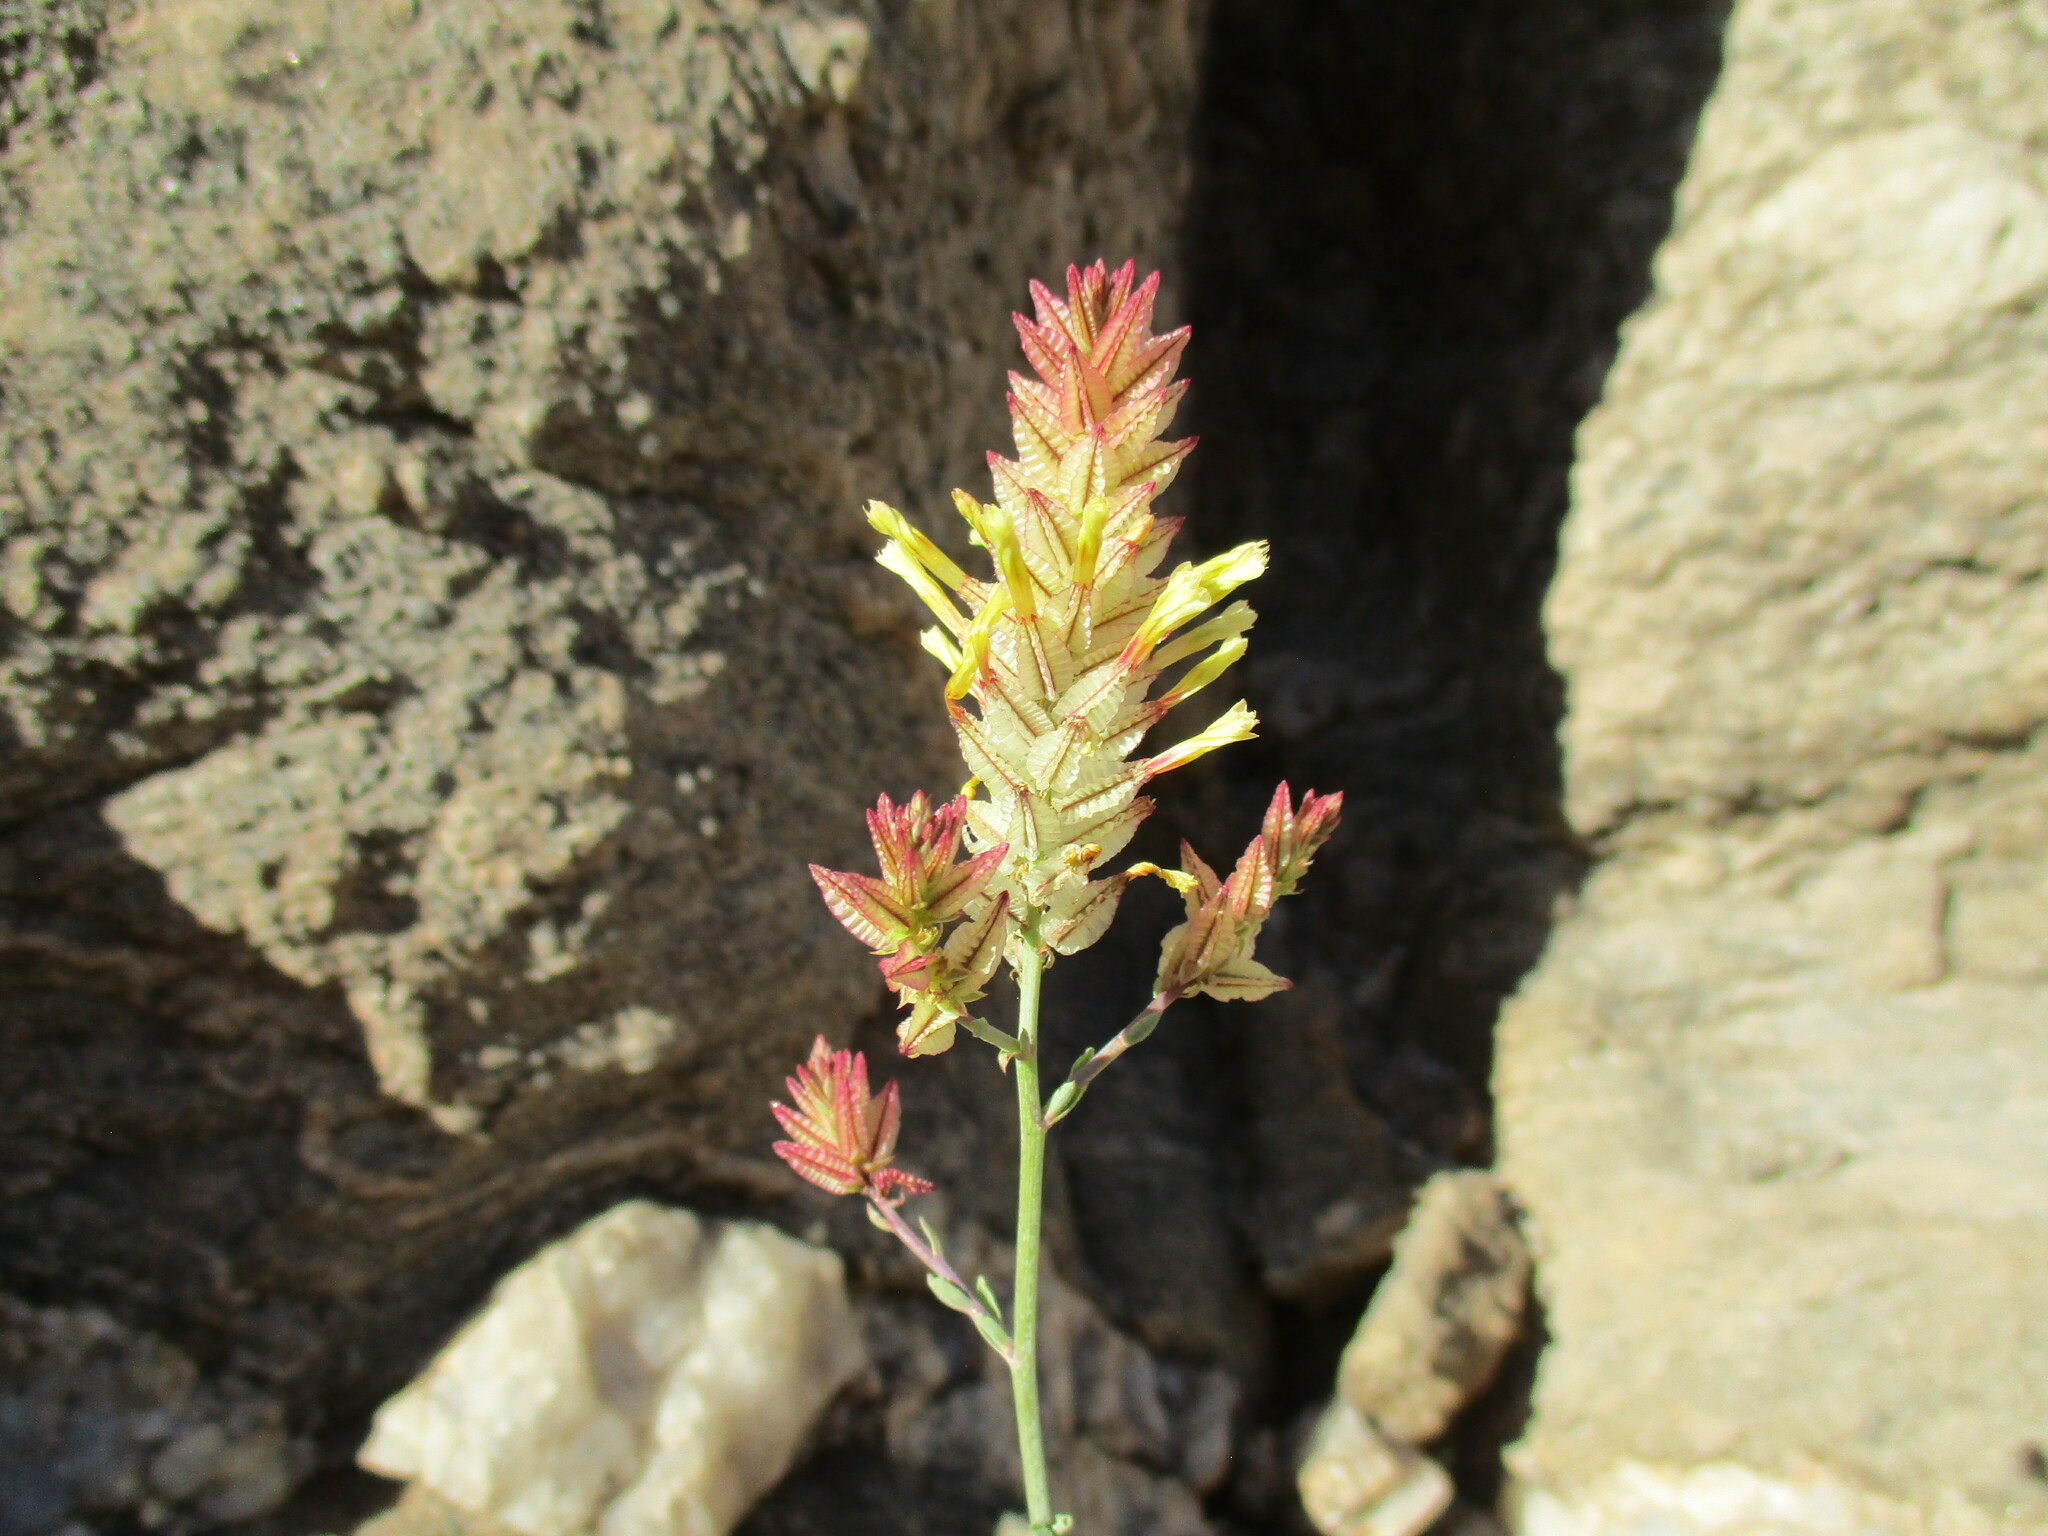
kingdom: Plantae
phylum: Tracheophyta
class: Magnoliopsida
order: Caryophyllales
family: Plumbaginaceae
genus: Dyerophytum
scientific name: Dyerophytum africanum
